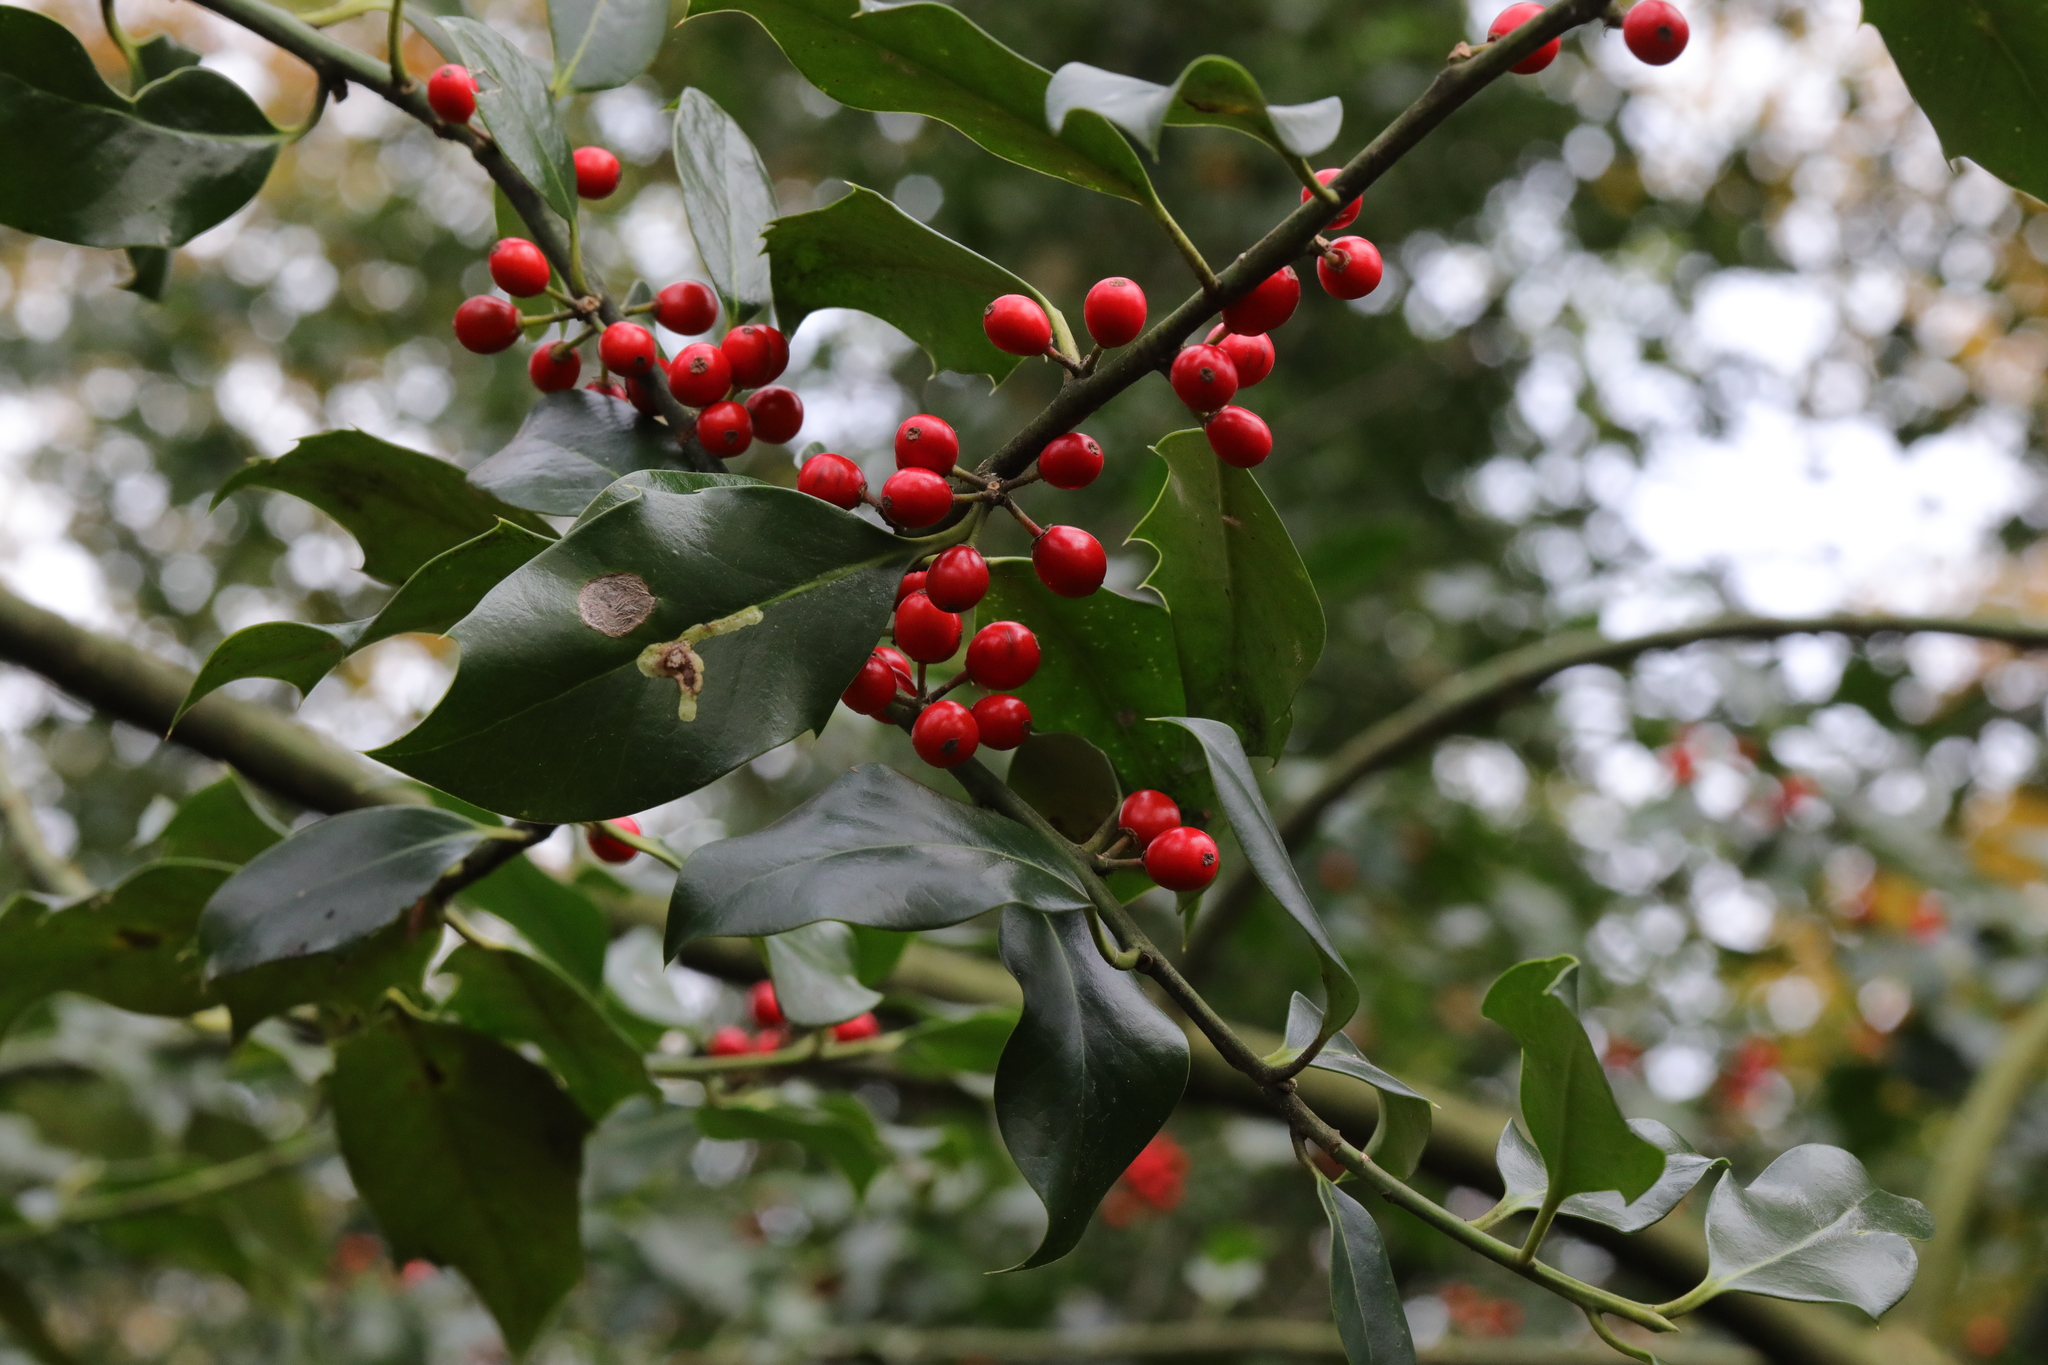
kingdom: Animalia
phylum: Arthropoda
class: Insecta
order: Diptera
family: Agromyzidae
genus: Phytomyza
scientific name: Phytomyza ilicis
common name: Holly leafminer
